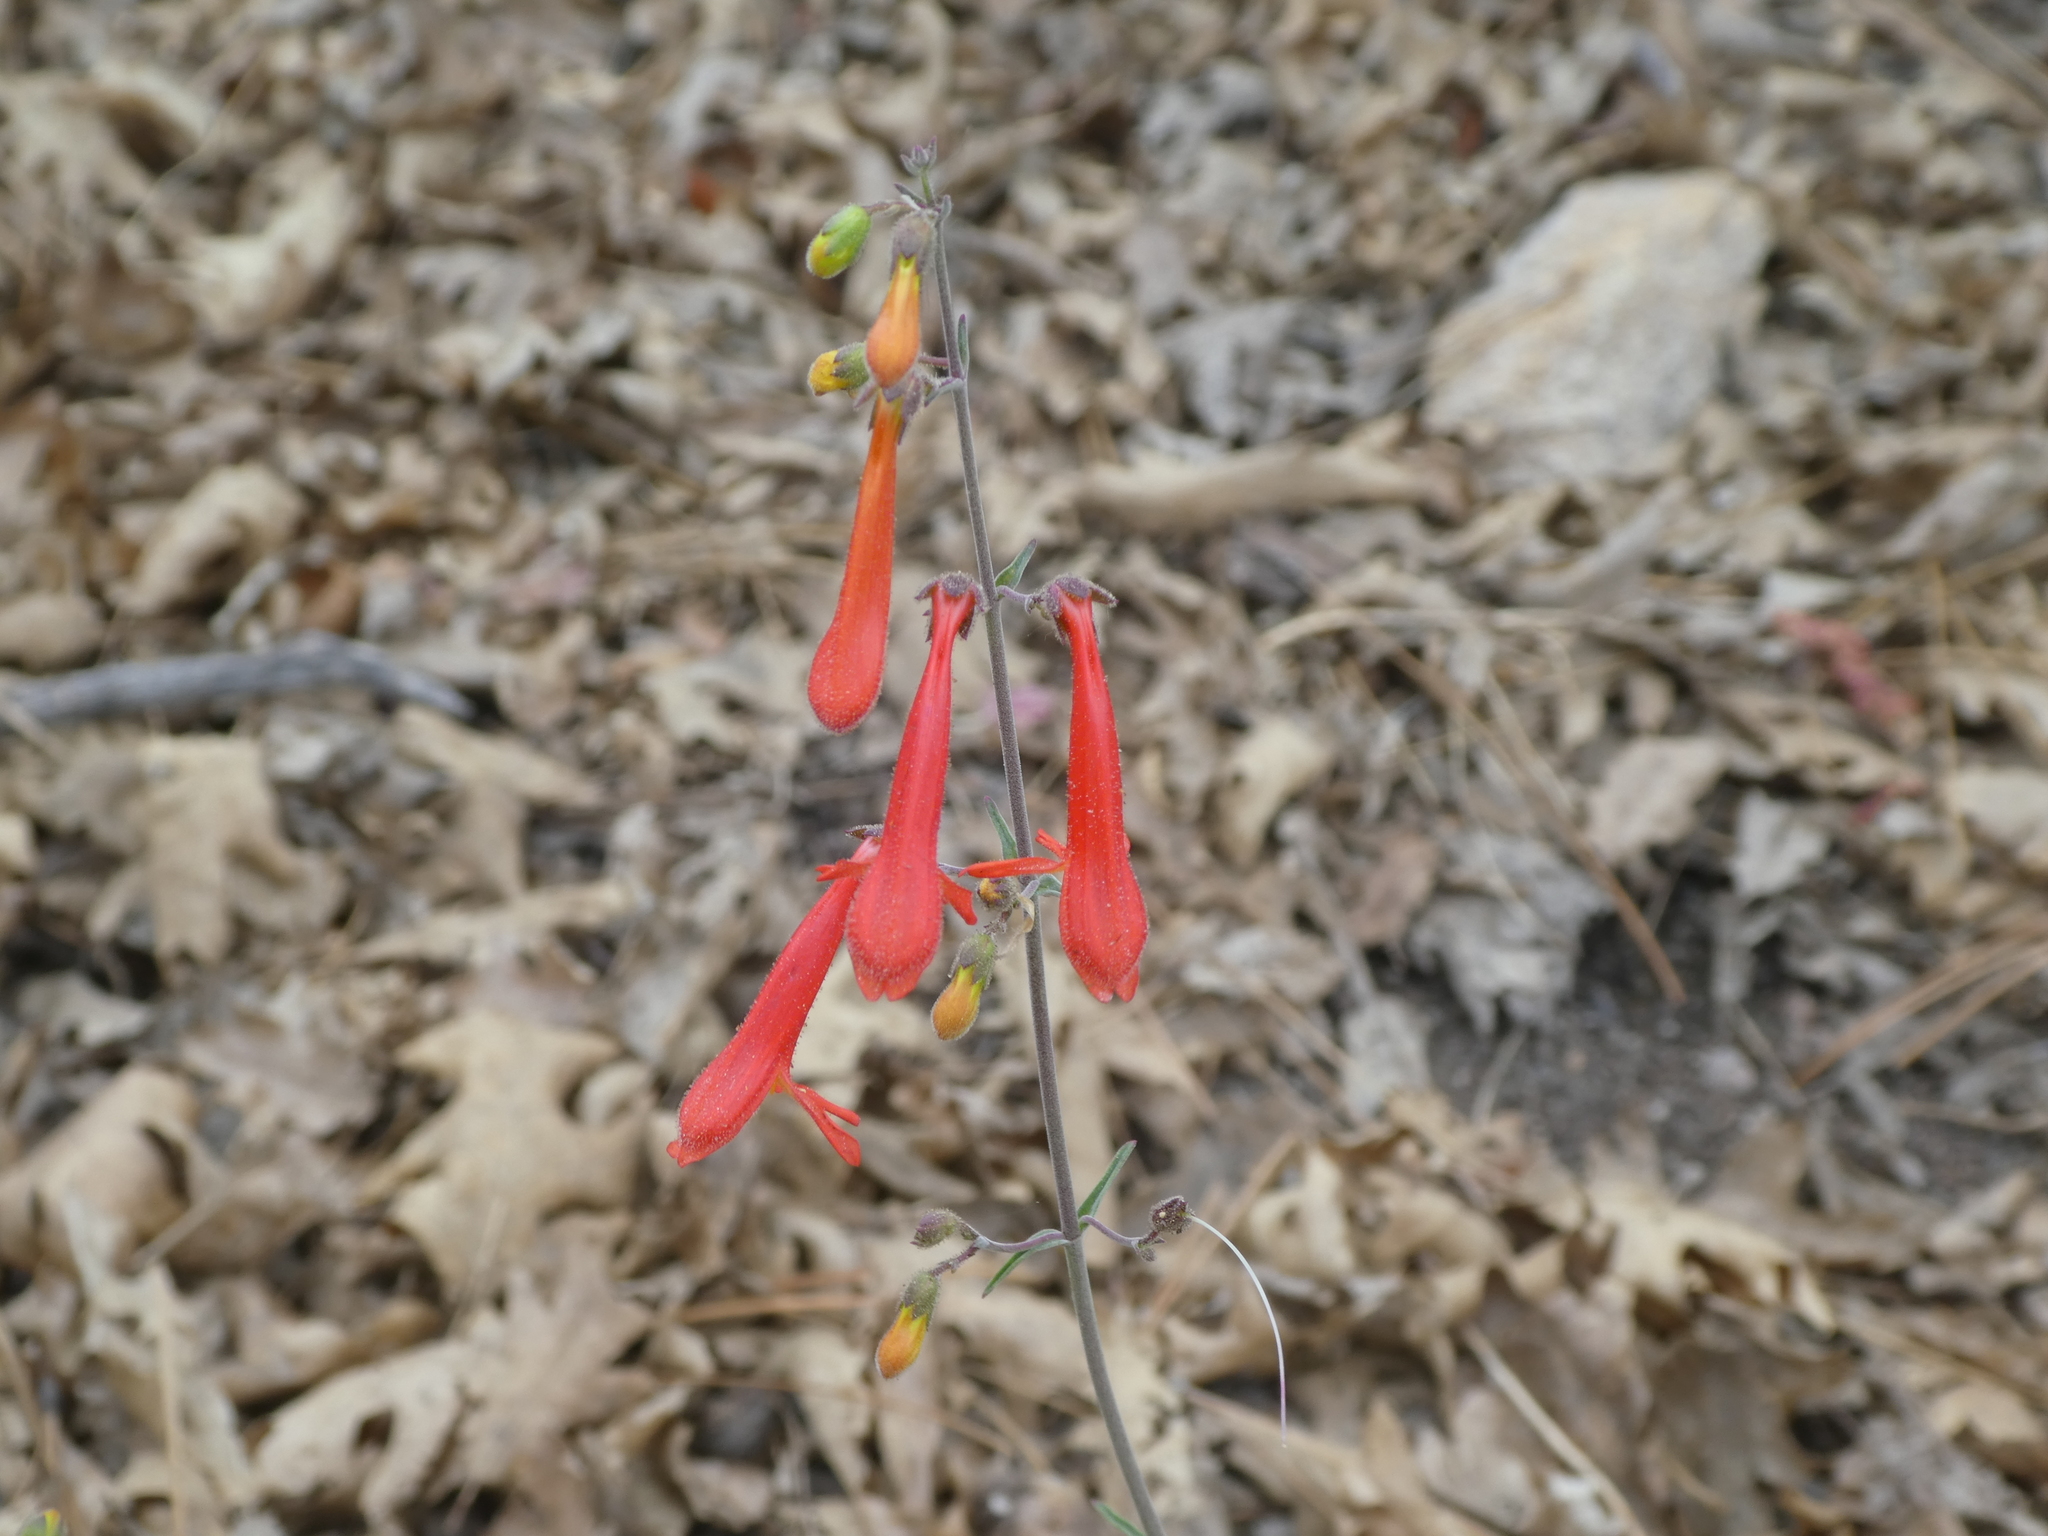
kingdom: Plantae
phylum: Tracheophyta
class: Magnoliopsida
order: Lamiales
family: Plantaginaceae
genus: Penstemon
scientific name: Penstemon rostriflorus
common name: Bridges's penstemon
